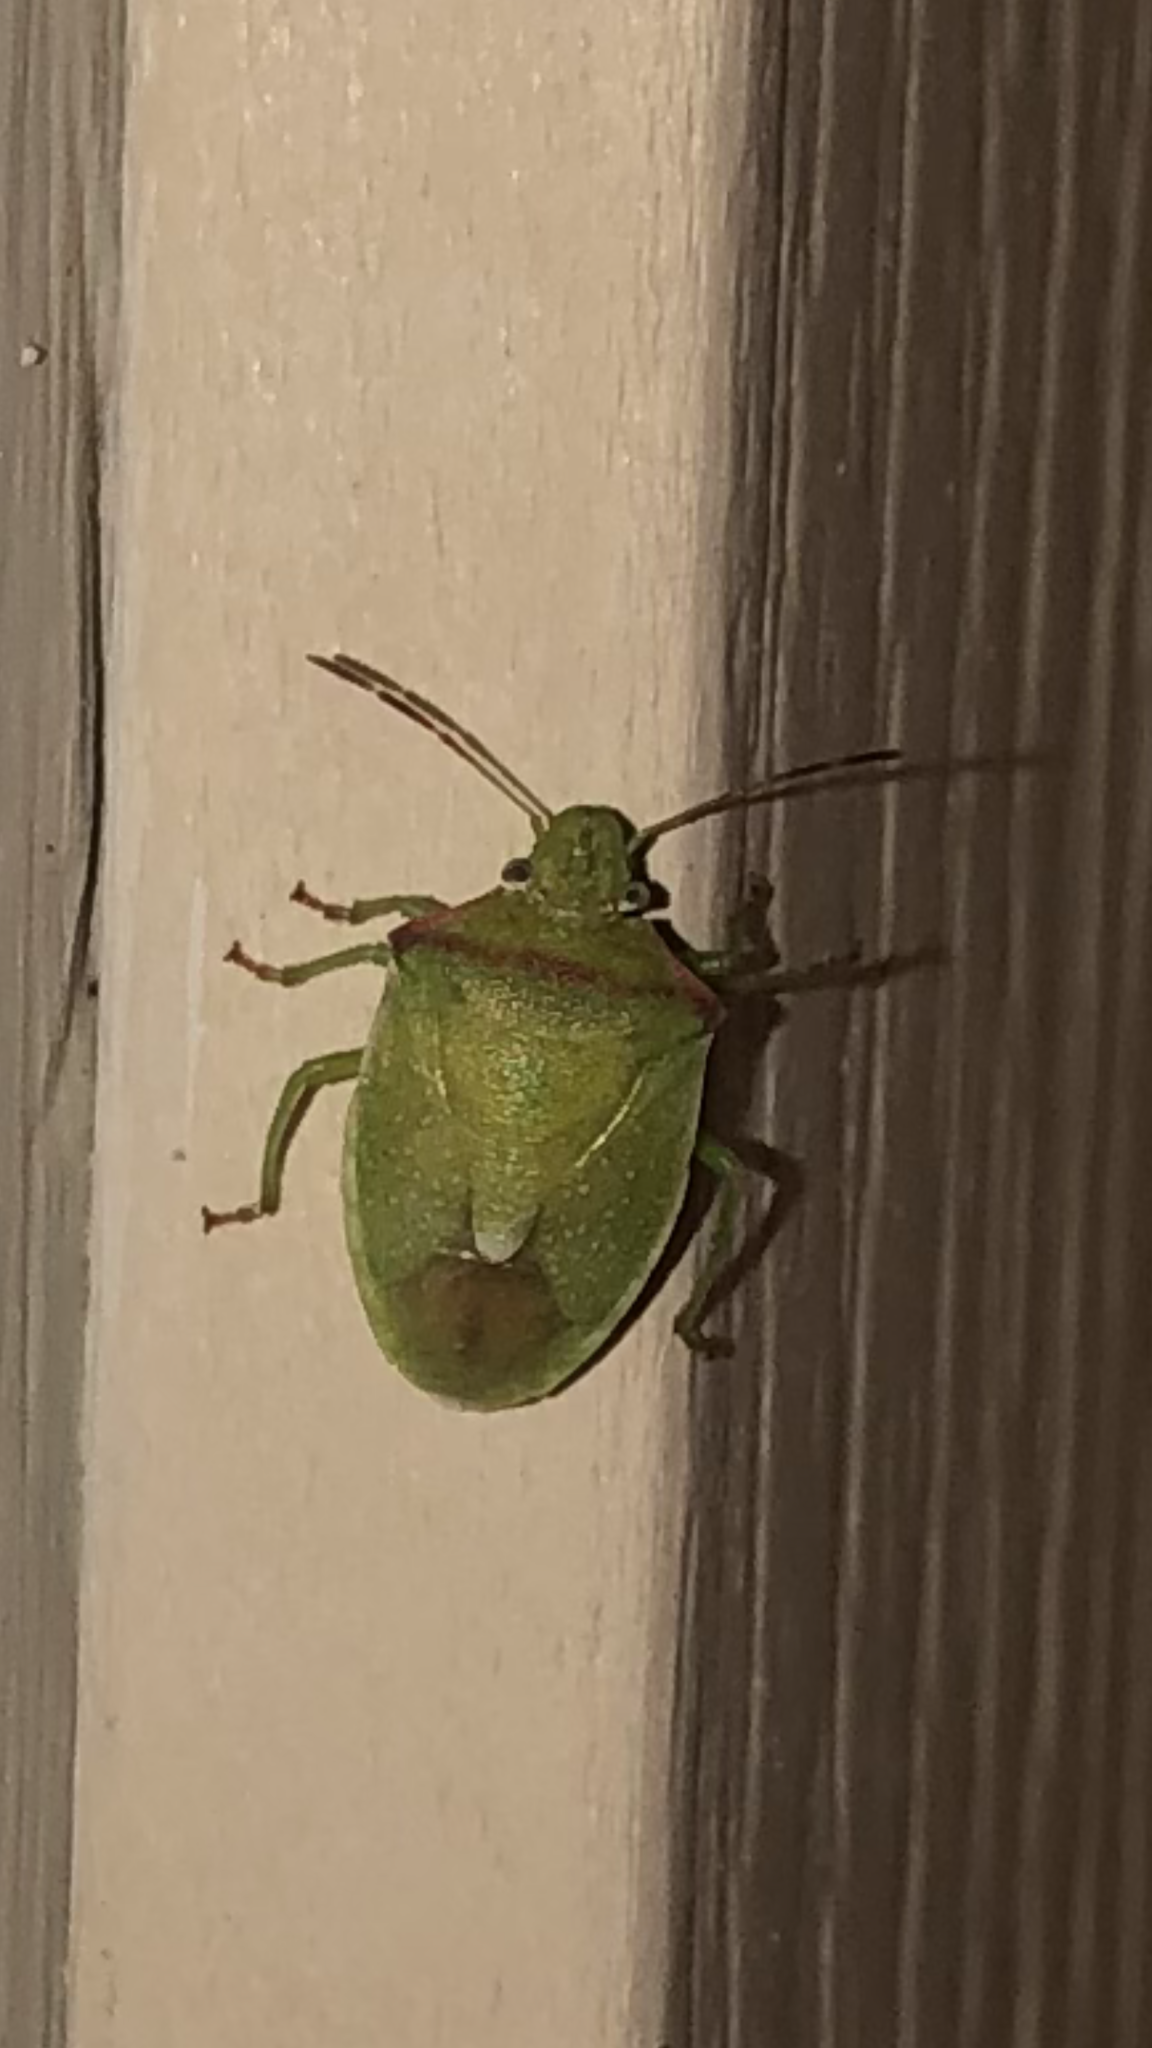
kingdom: Animalia
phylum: Arthropoda
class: Insecta
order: Hemiptera
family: Pentatomidae
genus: Thyanta
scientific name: Thyanta custator
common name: Stink bug
